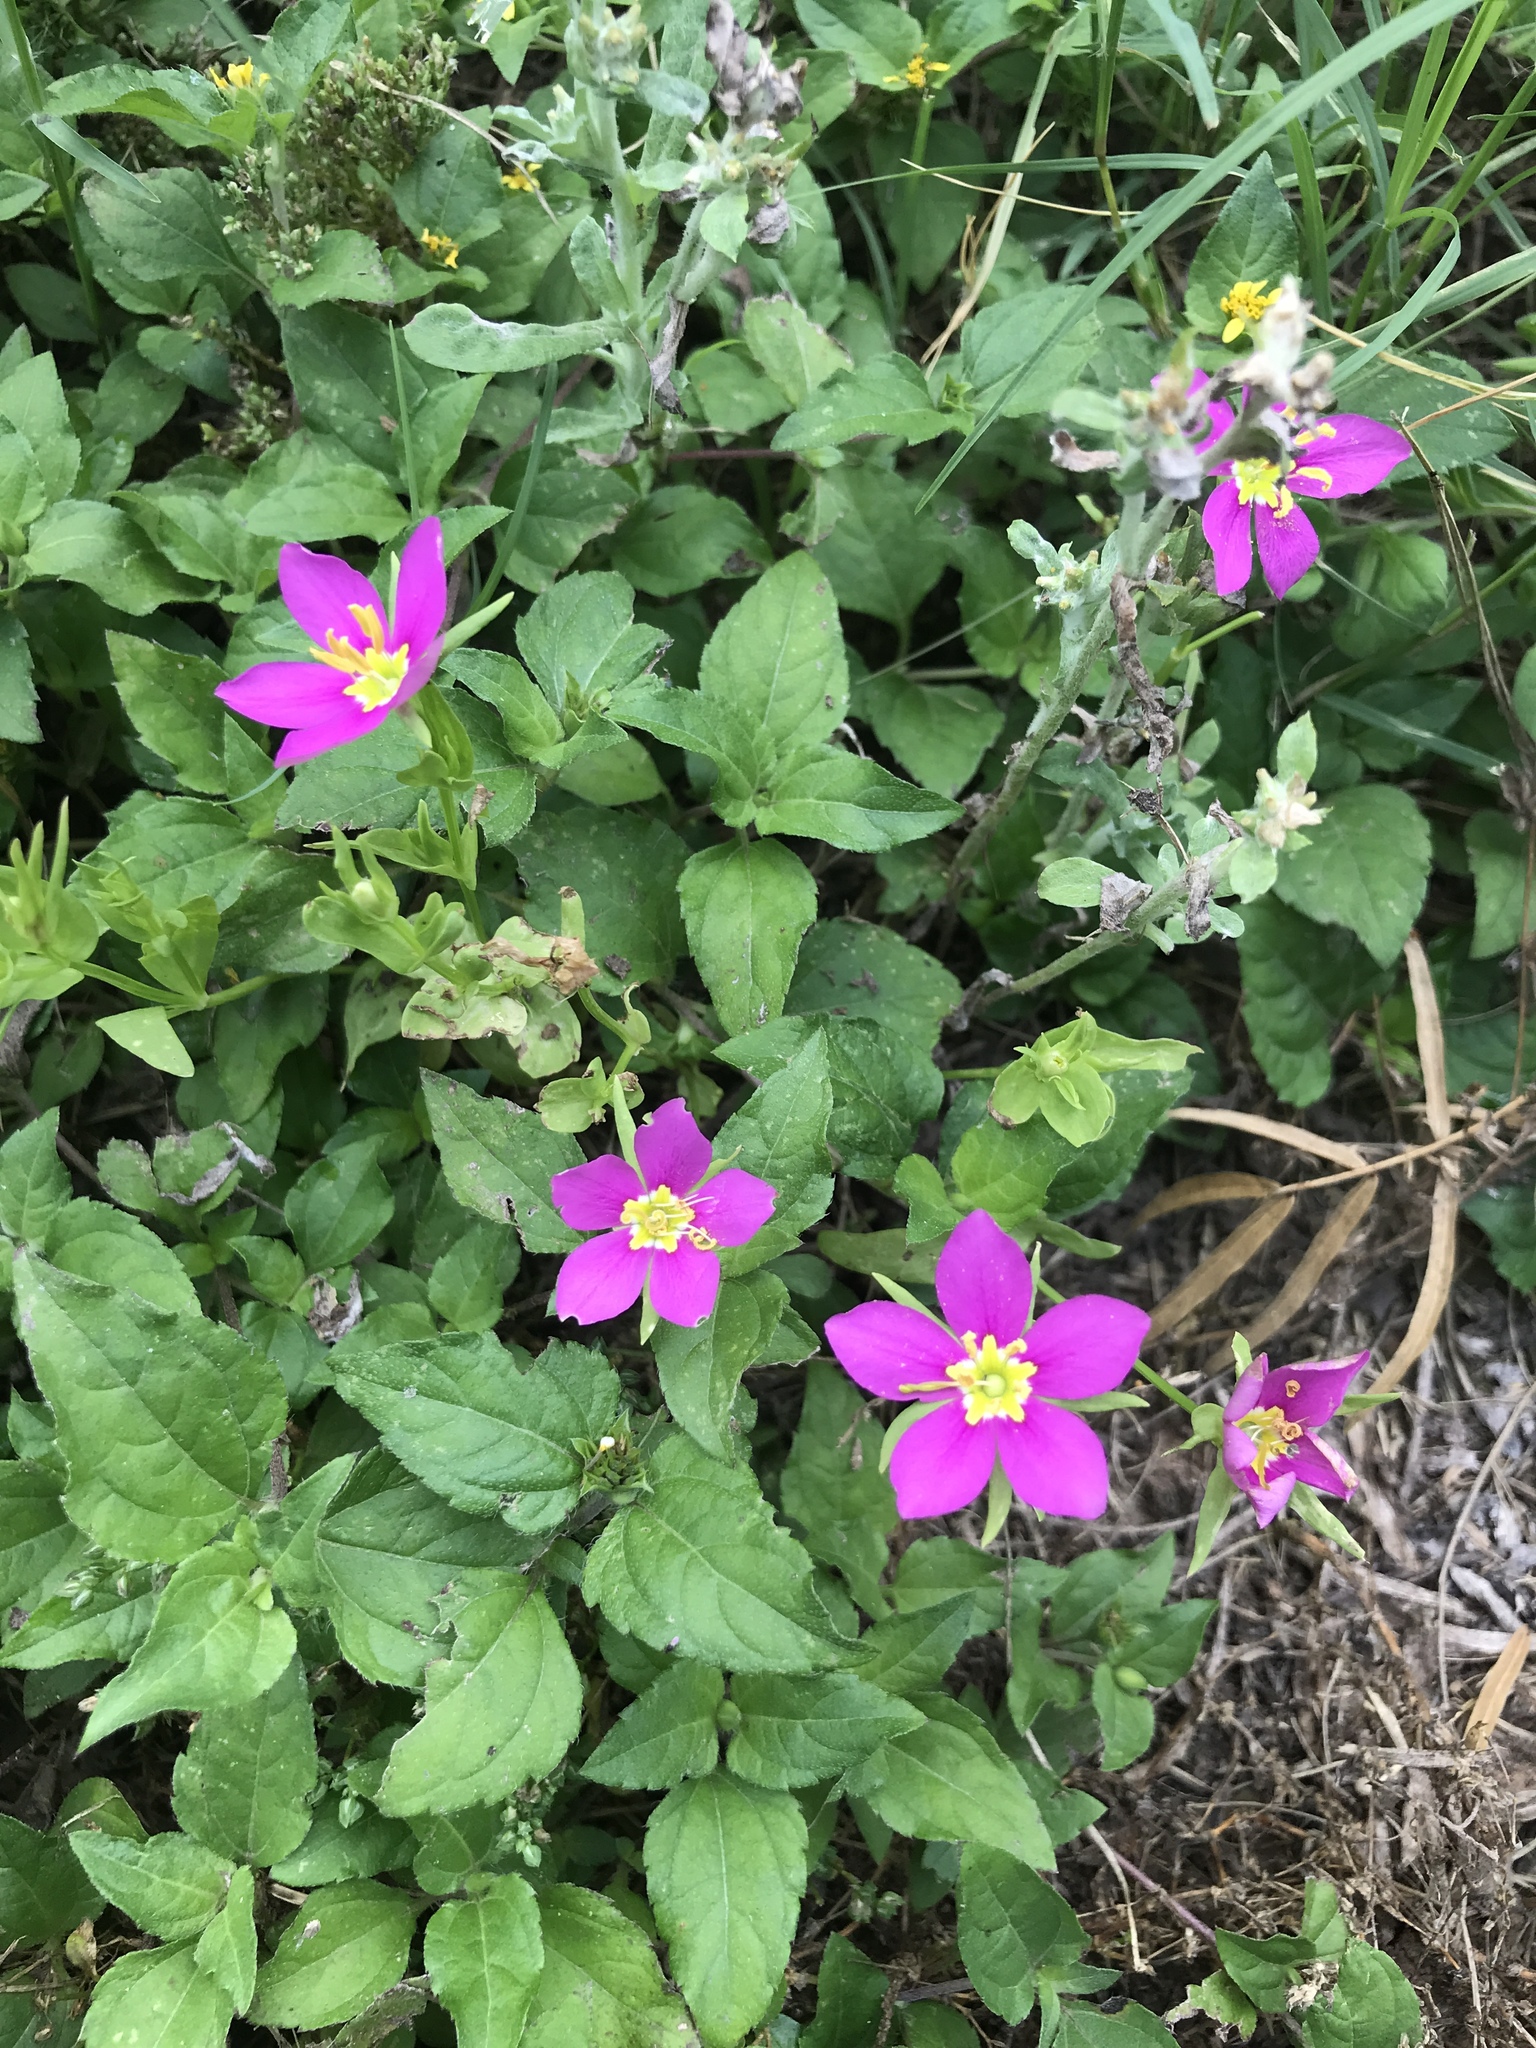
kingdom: Plantae
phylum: Tracheophyta
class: Magnoliopsida
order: Gentianales
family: Gentianaceae
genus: Sabatia
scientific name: Sabatia campestris
